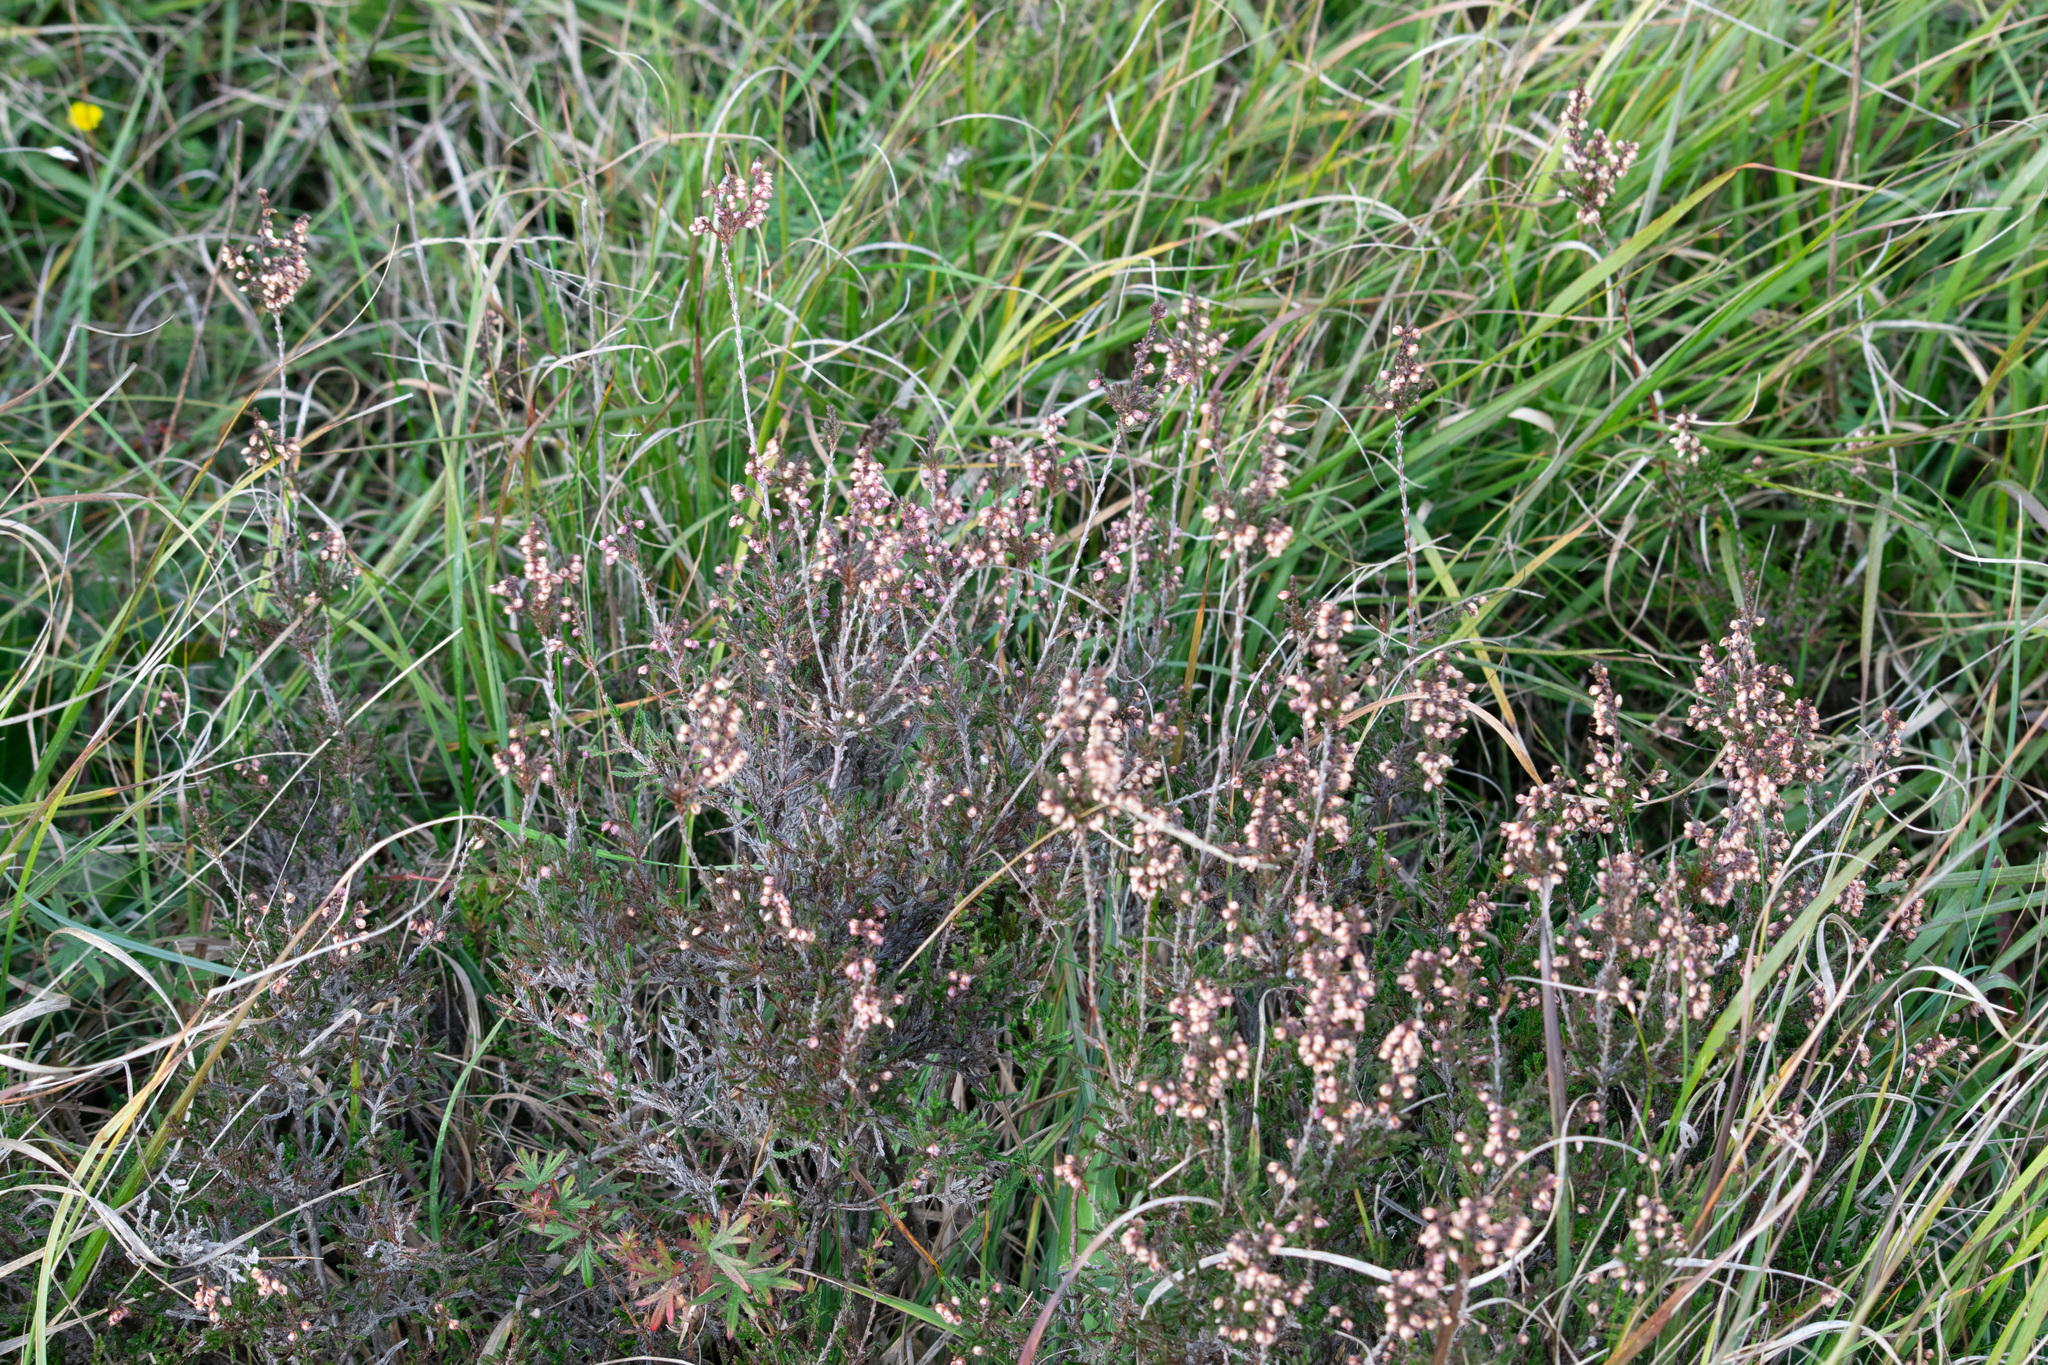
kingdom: Plantae
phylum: Tracheophyta
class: Magnoliopsida
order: Ericales
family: Ericaceae
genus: Calluna
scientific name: Calluna vulgaris
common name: Heather
